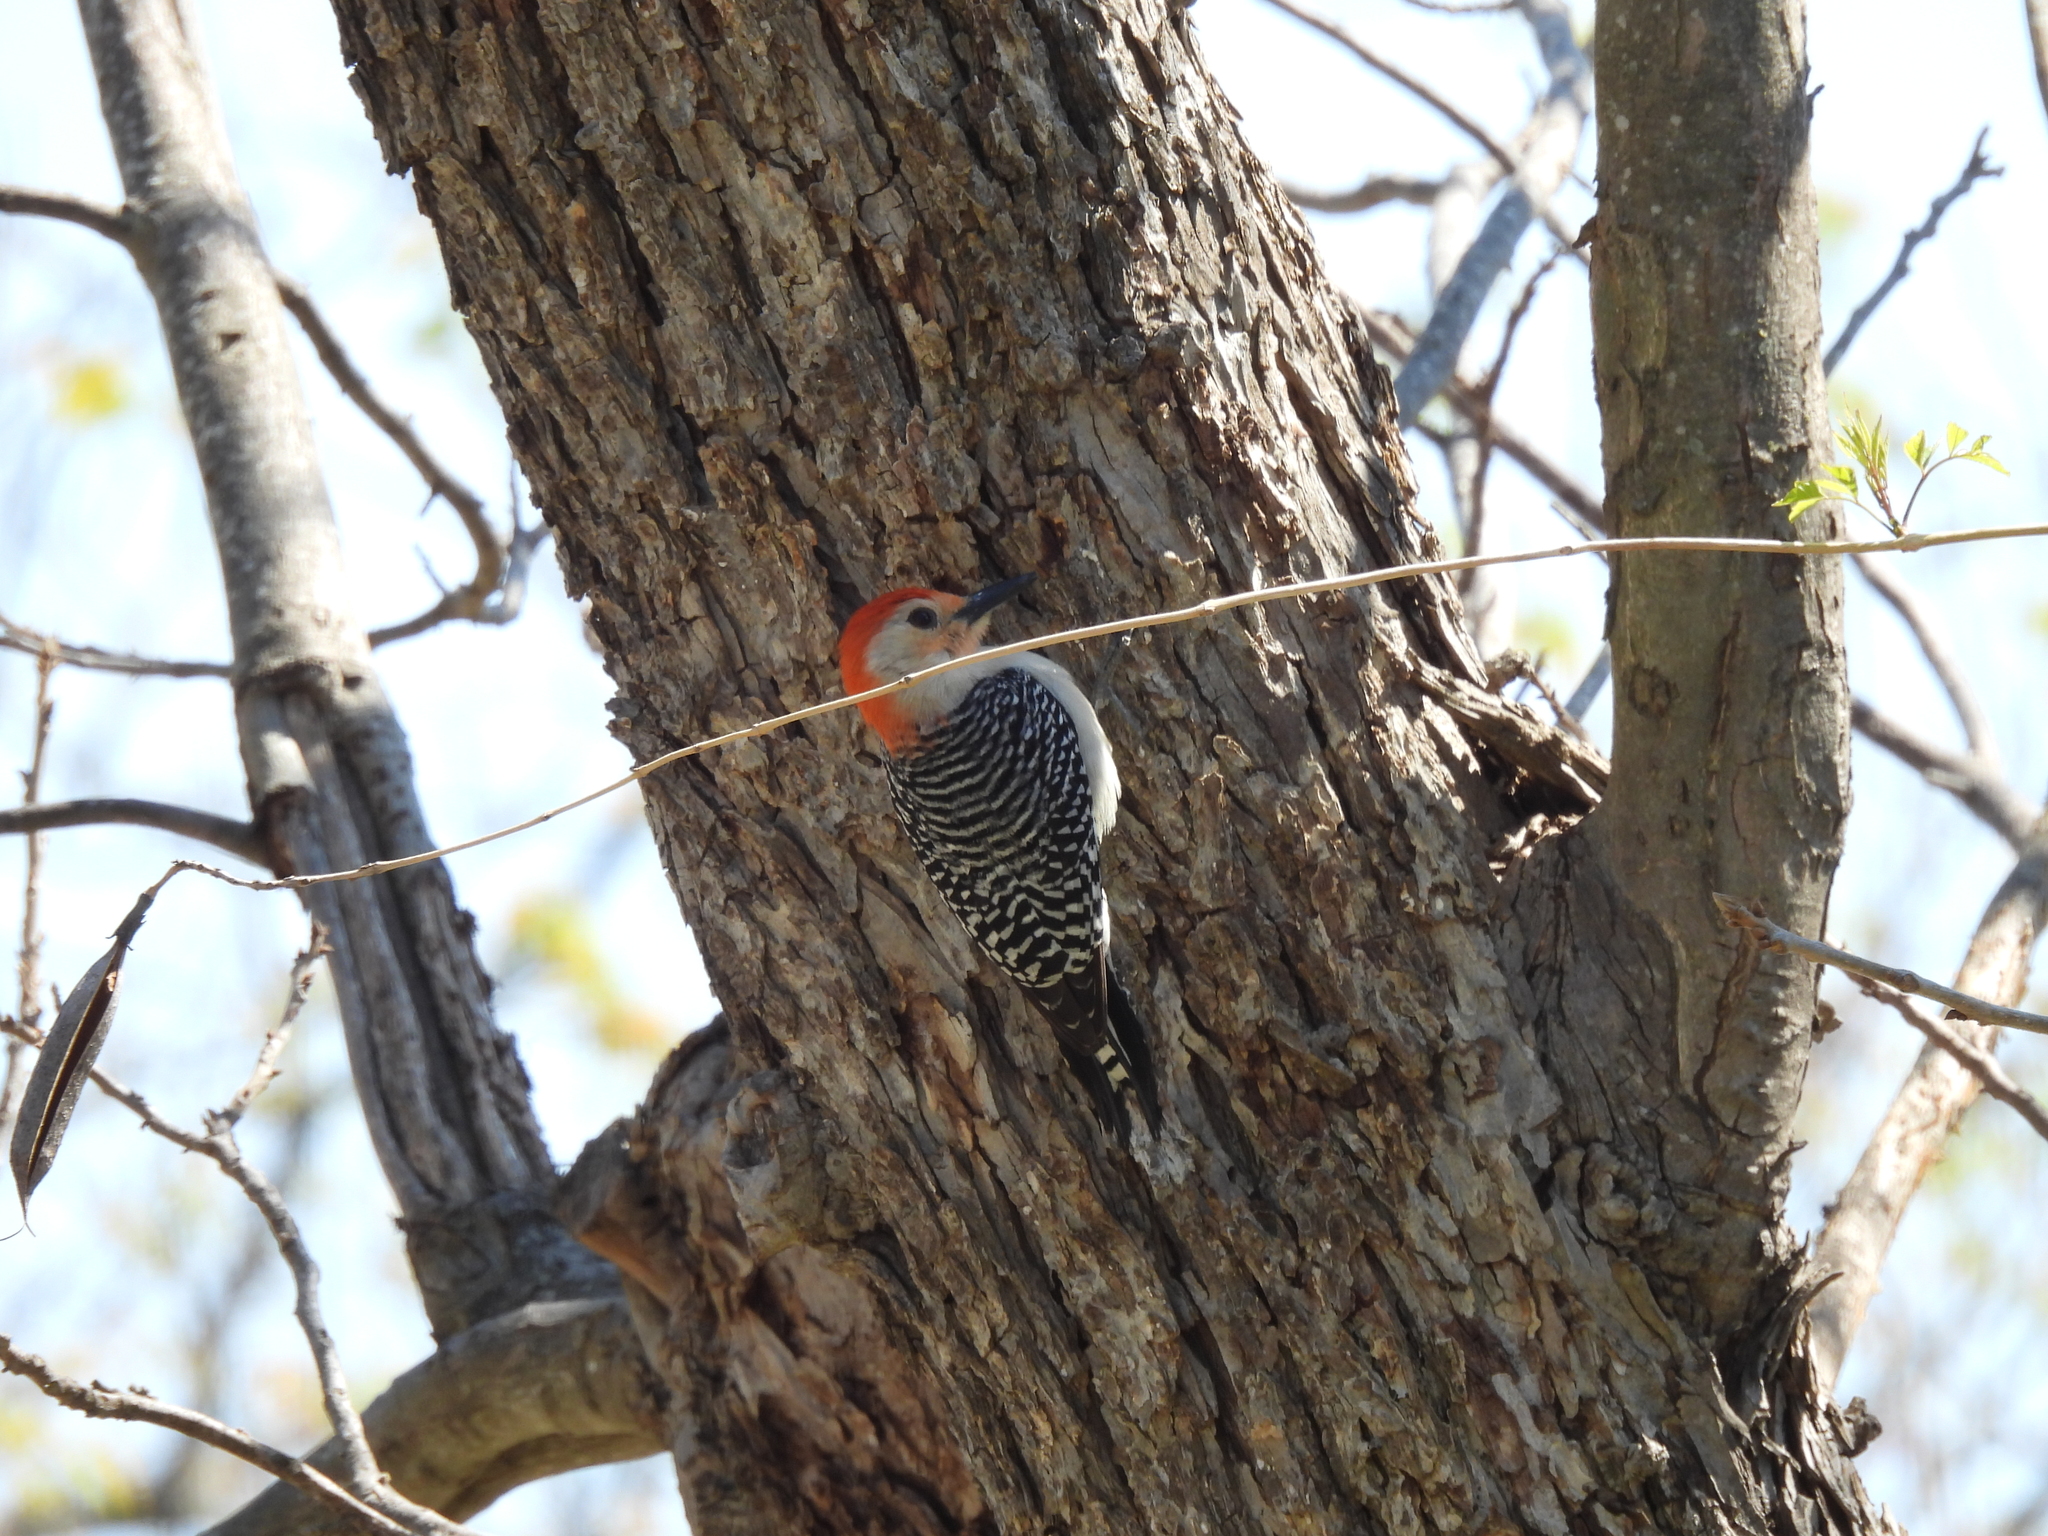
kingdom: Animalia
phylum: Chordata
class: Aves
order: Piciformes
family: Picidae
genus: Melanerpes
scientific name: Melanerpes carolinus
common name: Red-bellied woodpecker
